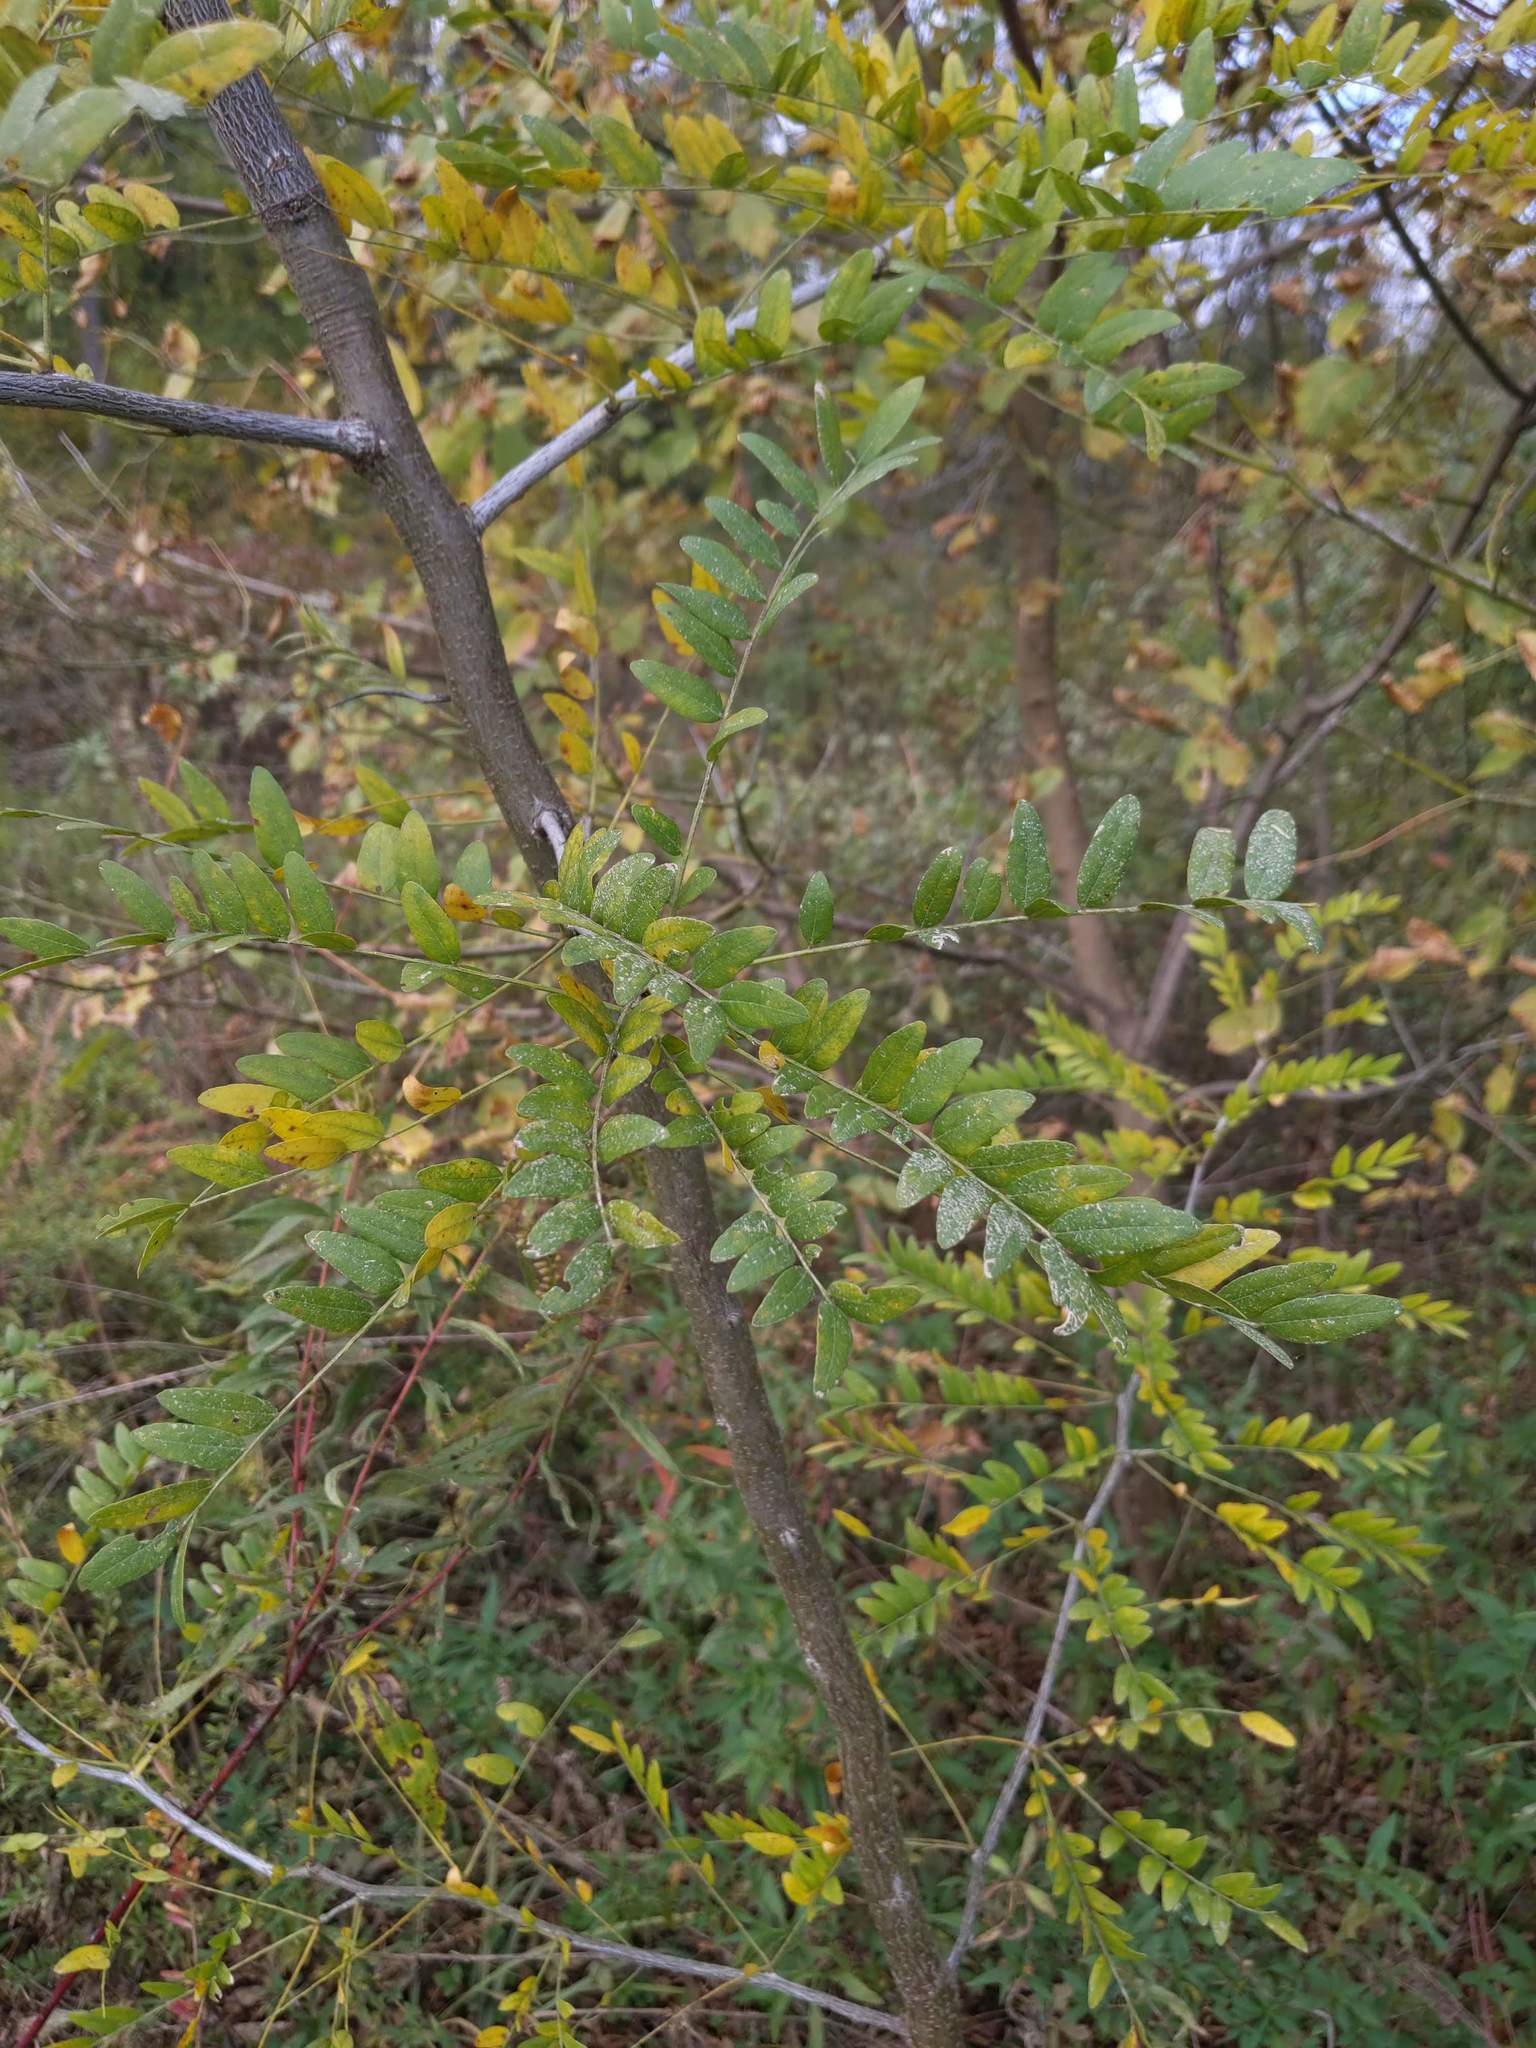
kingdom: Plantae
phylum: Tracheophyta
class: Magnoliopsida
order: Fabales
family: Fabaceae
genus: Gleditsia
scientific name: Gleditsia triacanthos
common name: Common honeylocust
